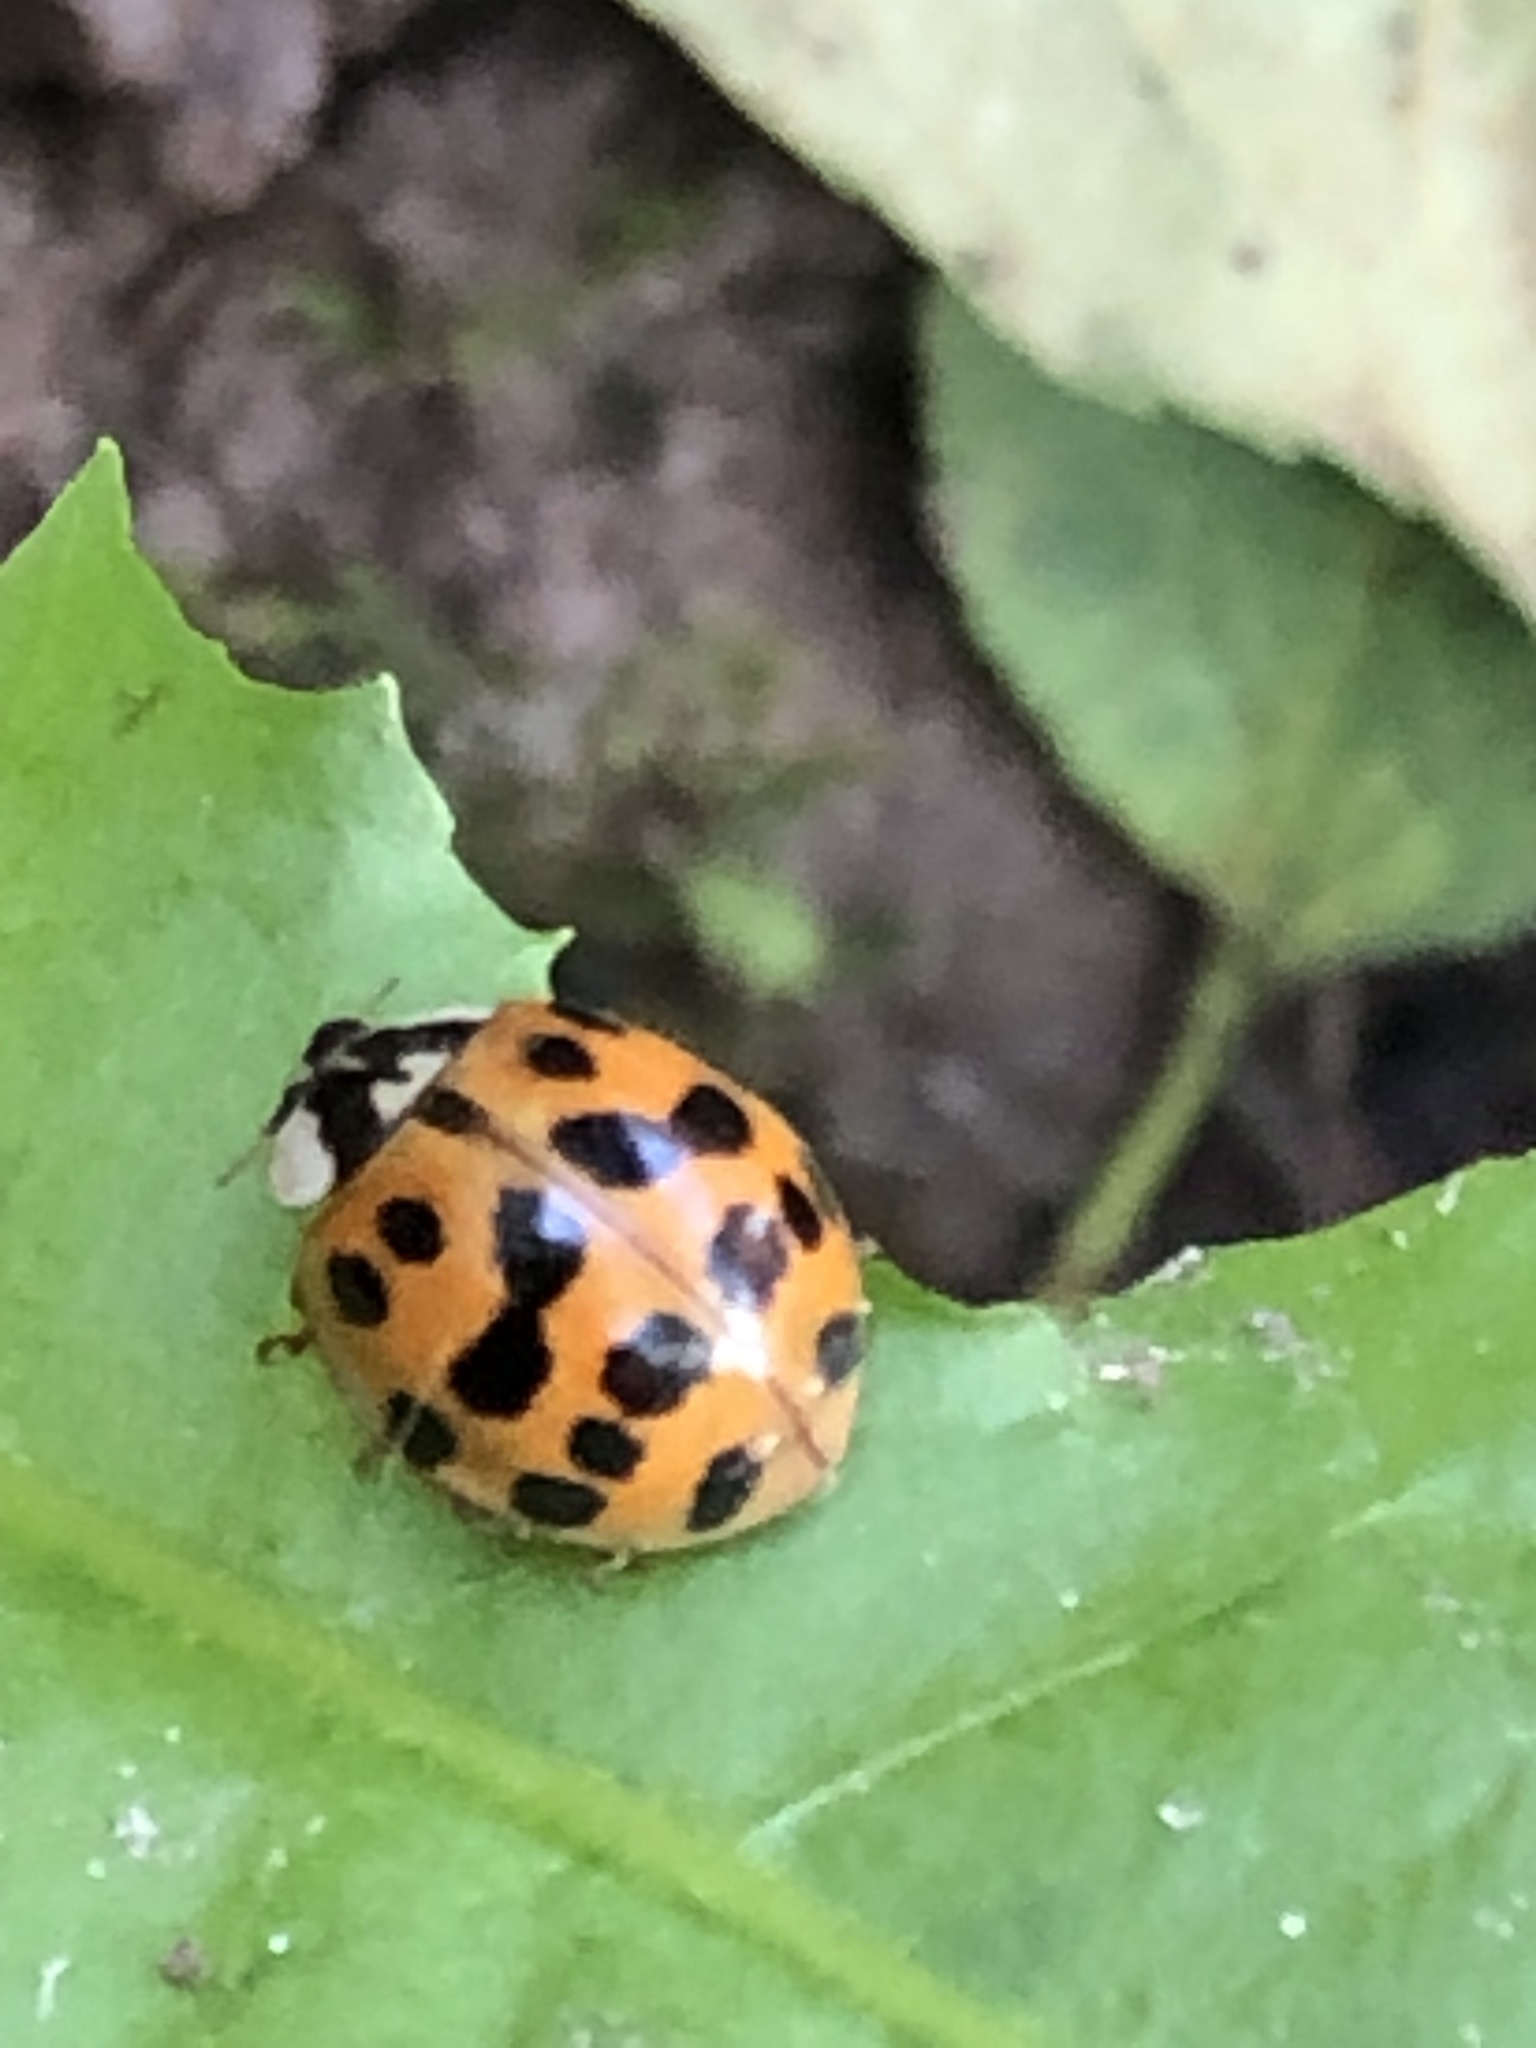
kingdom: Animalia
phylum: Arthropoda
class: Insecta
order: Coleoptera
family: Coccinellidae
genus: Harmonia
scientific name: Harmonia axyridis
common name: Harlequin ladybird
